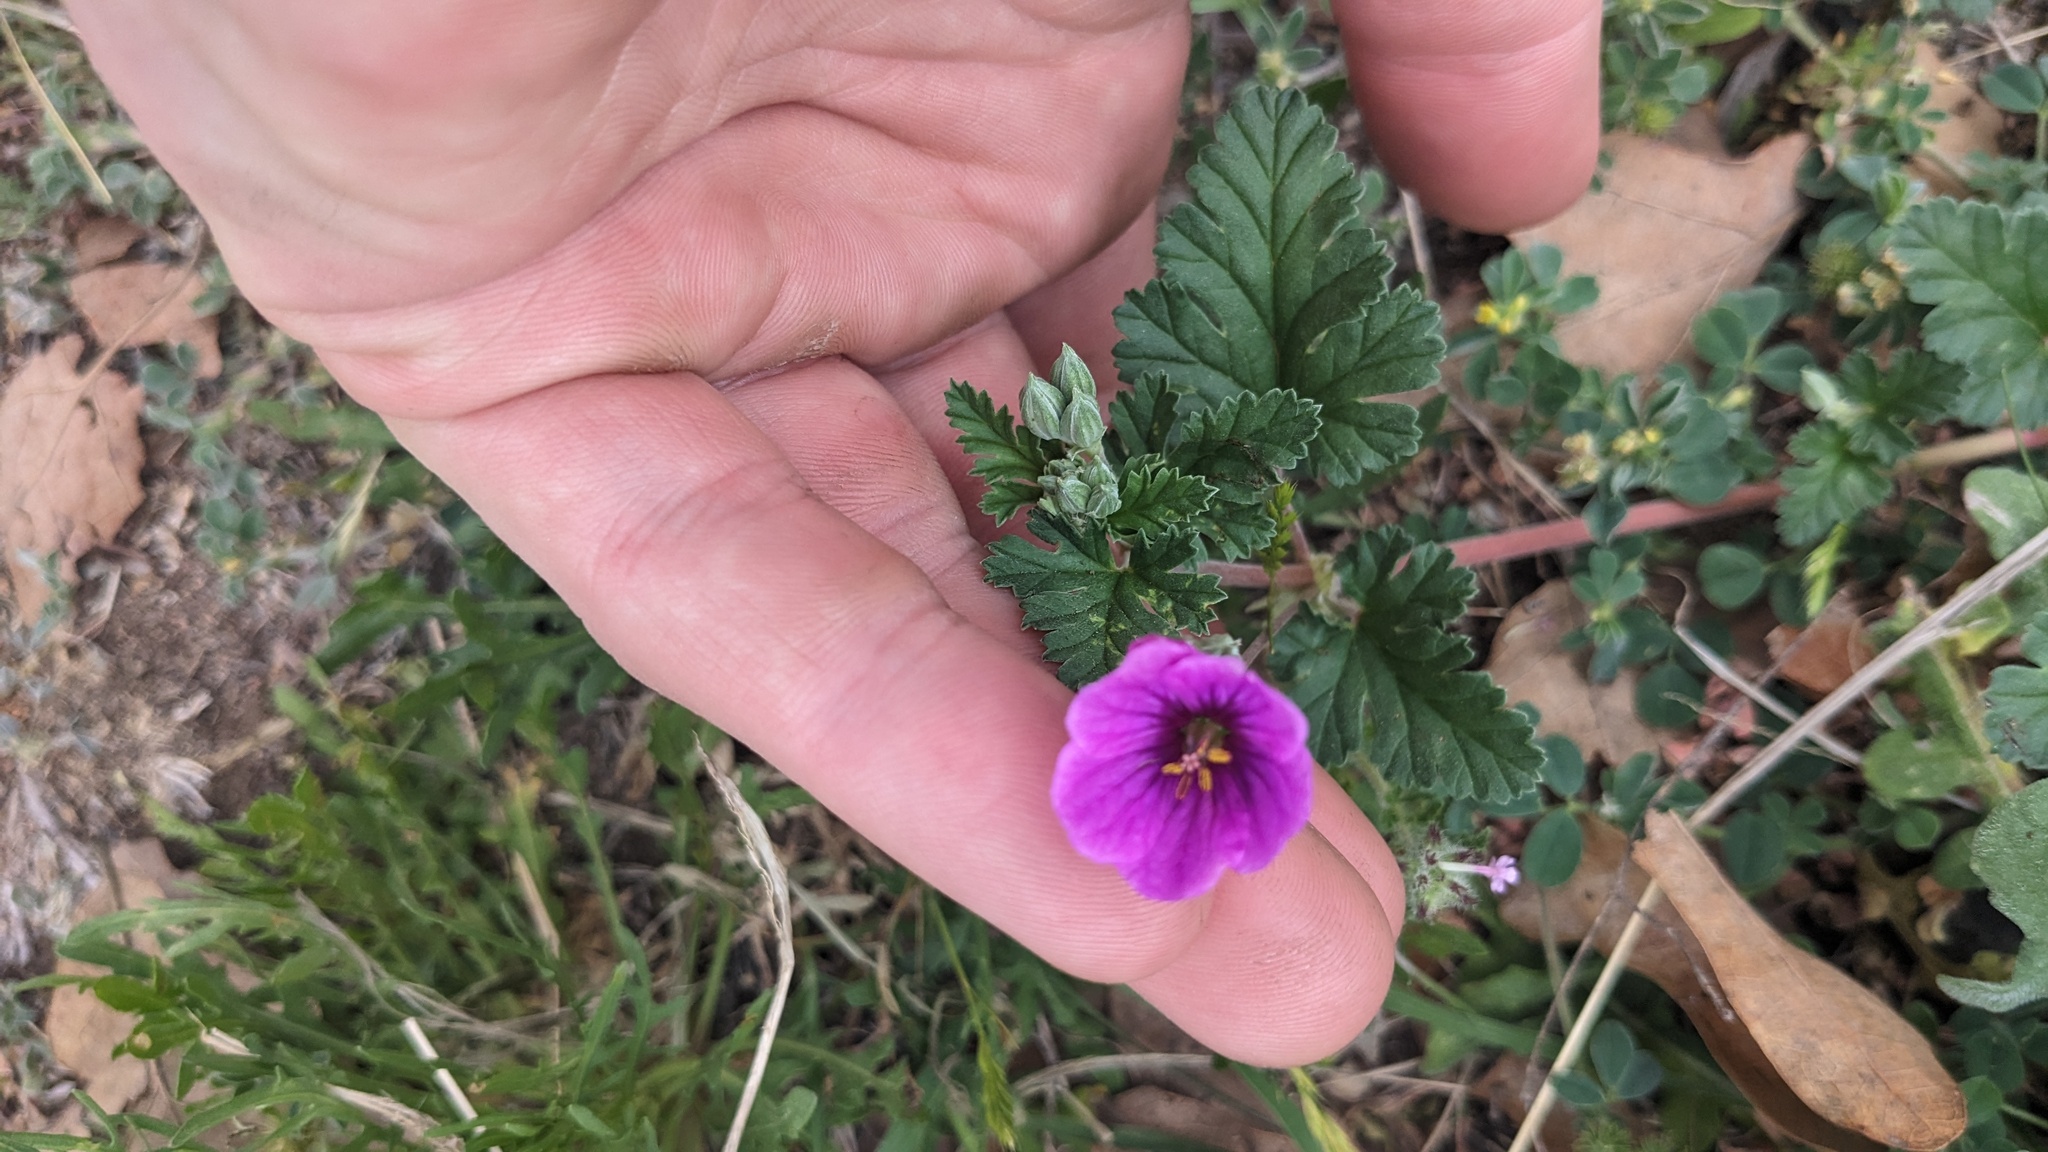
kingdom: Plantae
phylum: Tracheophyta
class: Magnoliopsida
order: Geraniales
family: Geraniaceae
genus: Erodium
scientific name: Erodium texanum
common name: Texas stork's-bill
